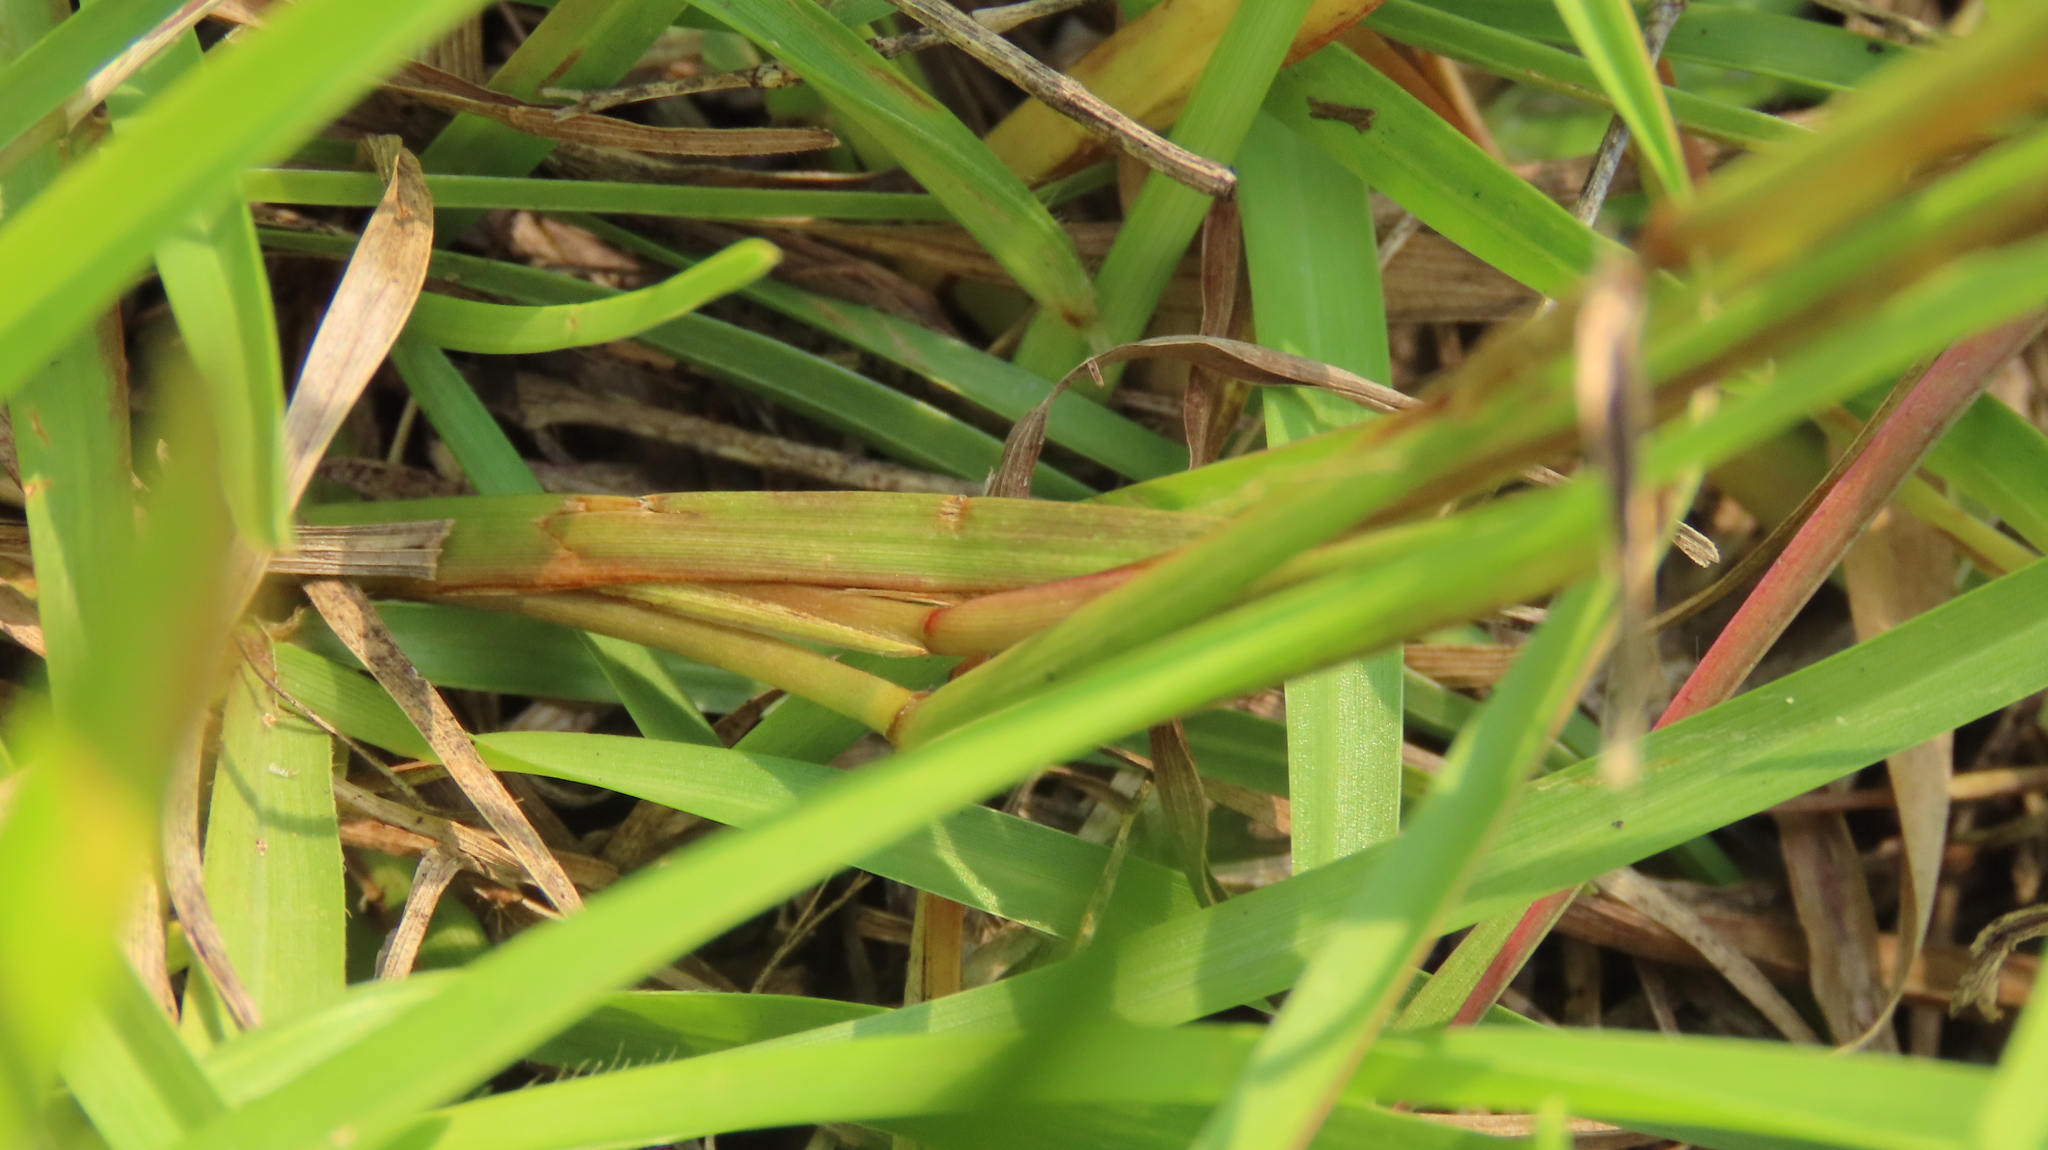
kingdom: Plantae
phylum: Tracheophyta
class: Liliopsida
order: Poales
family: Poaceae
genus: Eremochloa
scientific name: Eremochloa ophiuroides
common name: Centipede grass
